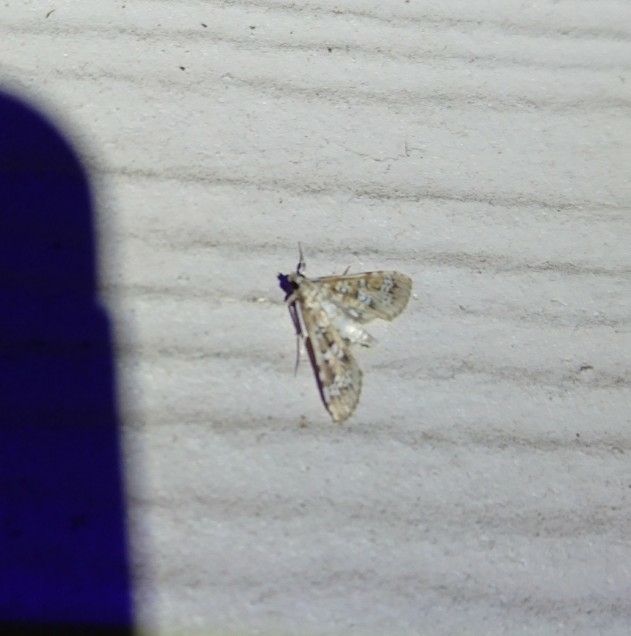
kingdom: Animalia
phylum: Arthropoda
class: Insecta
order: Lepidoptera
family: Crambidae
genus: Samea
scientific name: Samea multiplicalis
